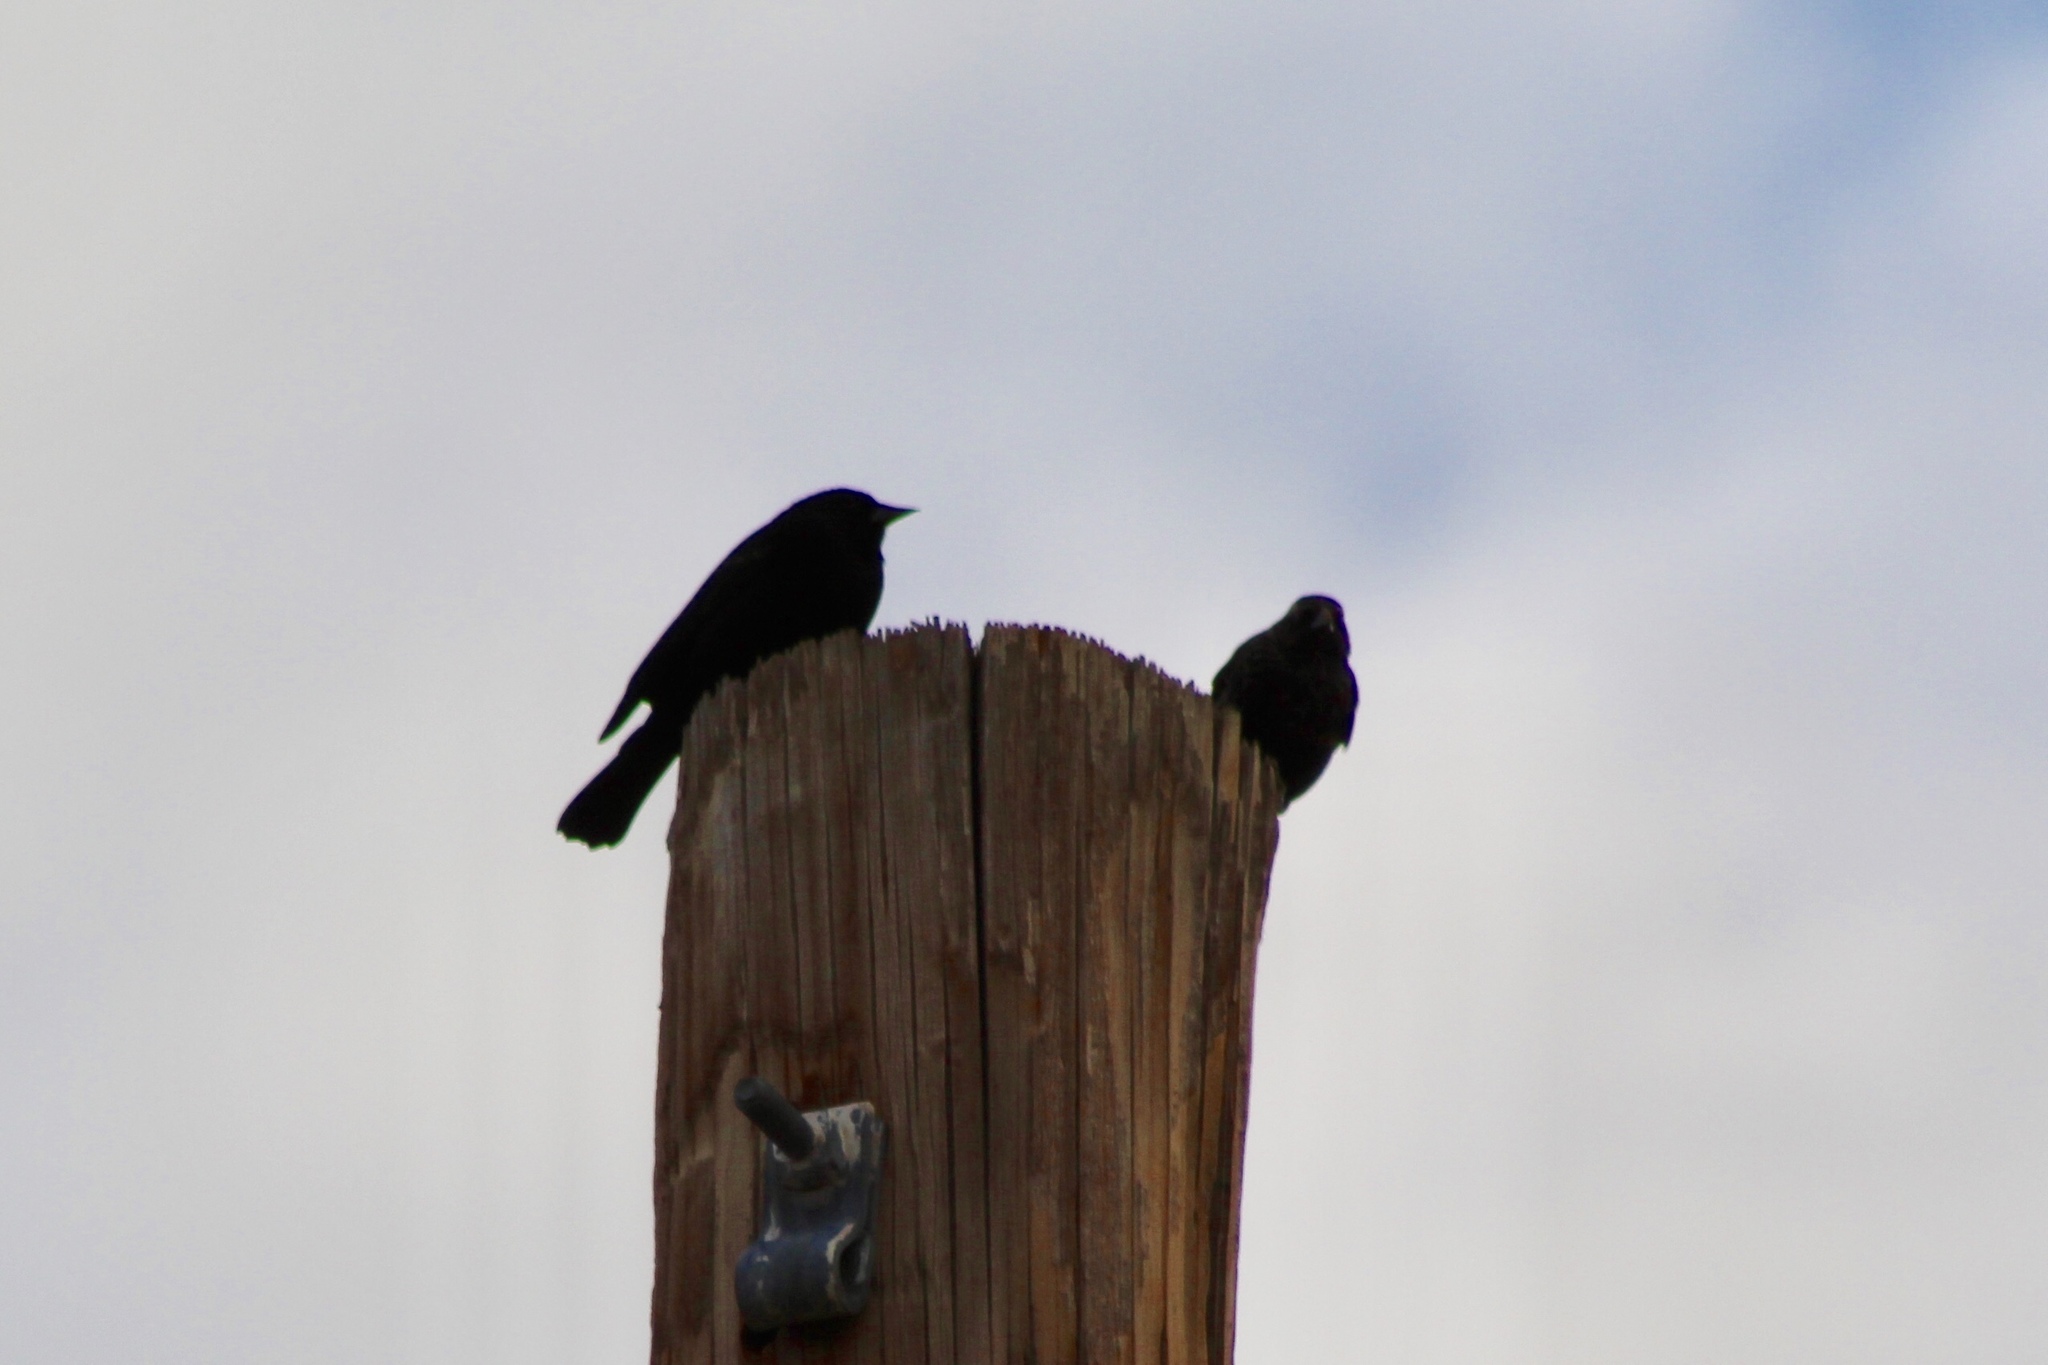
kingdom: Animalia
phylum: Chordata
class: Aves
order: Passeriformes
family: Icteridae
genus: Agelaius
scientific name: Agelaius phoeniceus
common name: Red-winged blackbird
